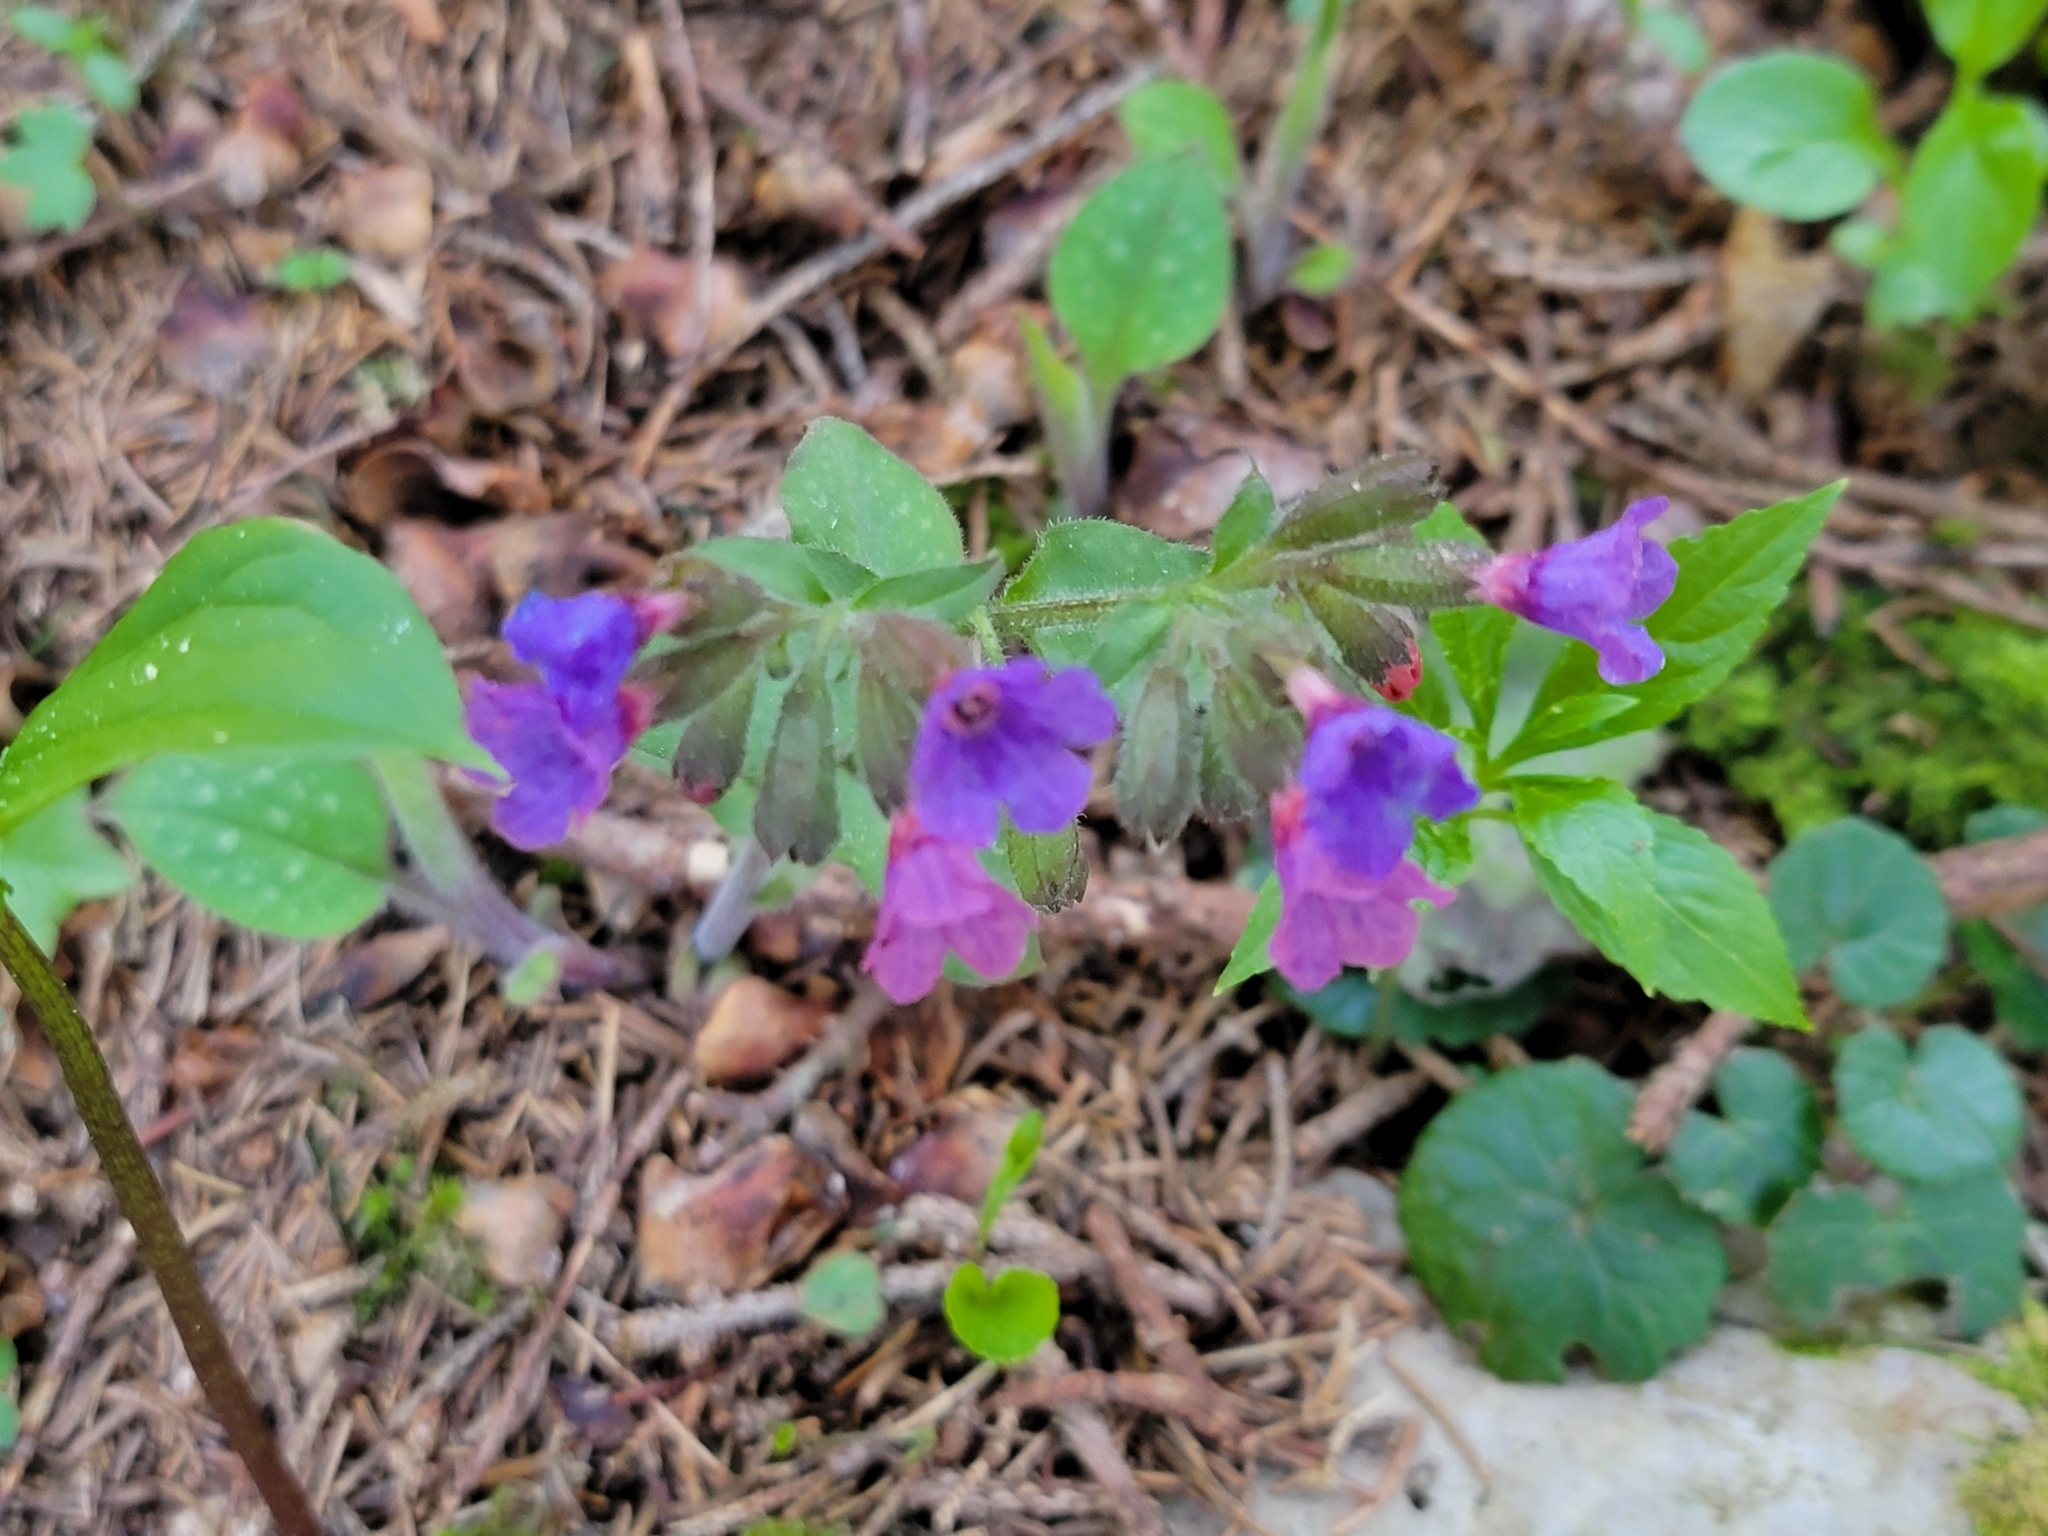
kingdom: Plantae
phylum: Tracheophyta
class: Magnoliopsida
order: Boraginales
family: Boraginaceae
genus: Pulmonaria
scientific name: Pulmonaria officinalis
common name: Lungwort
